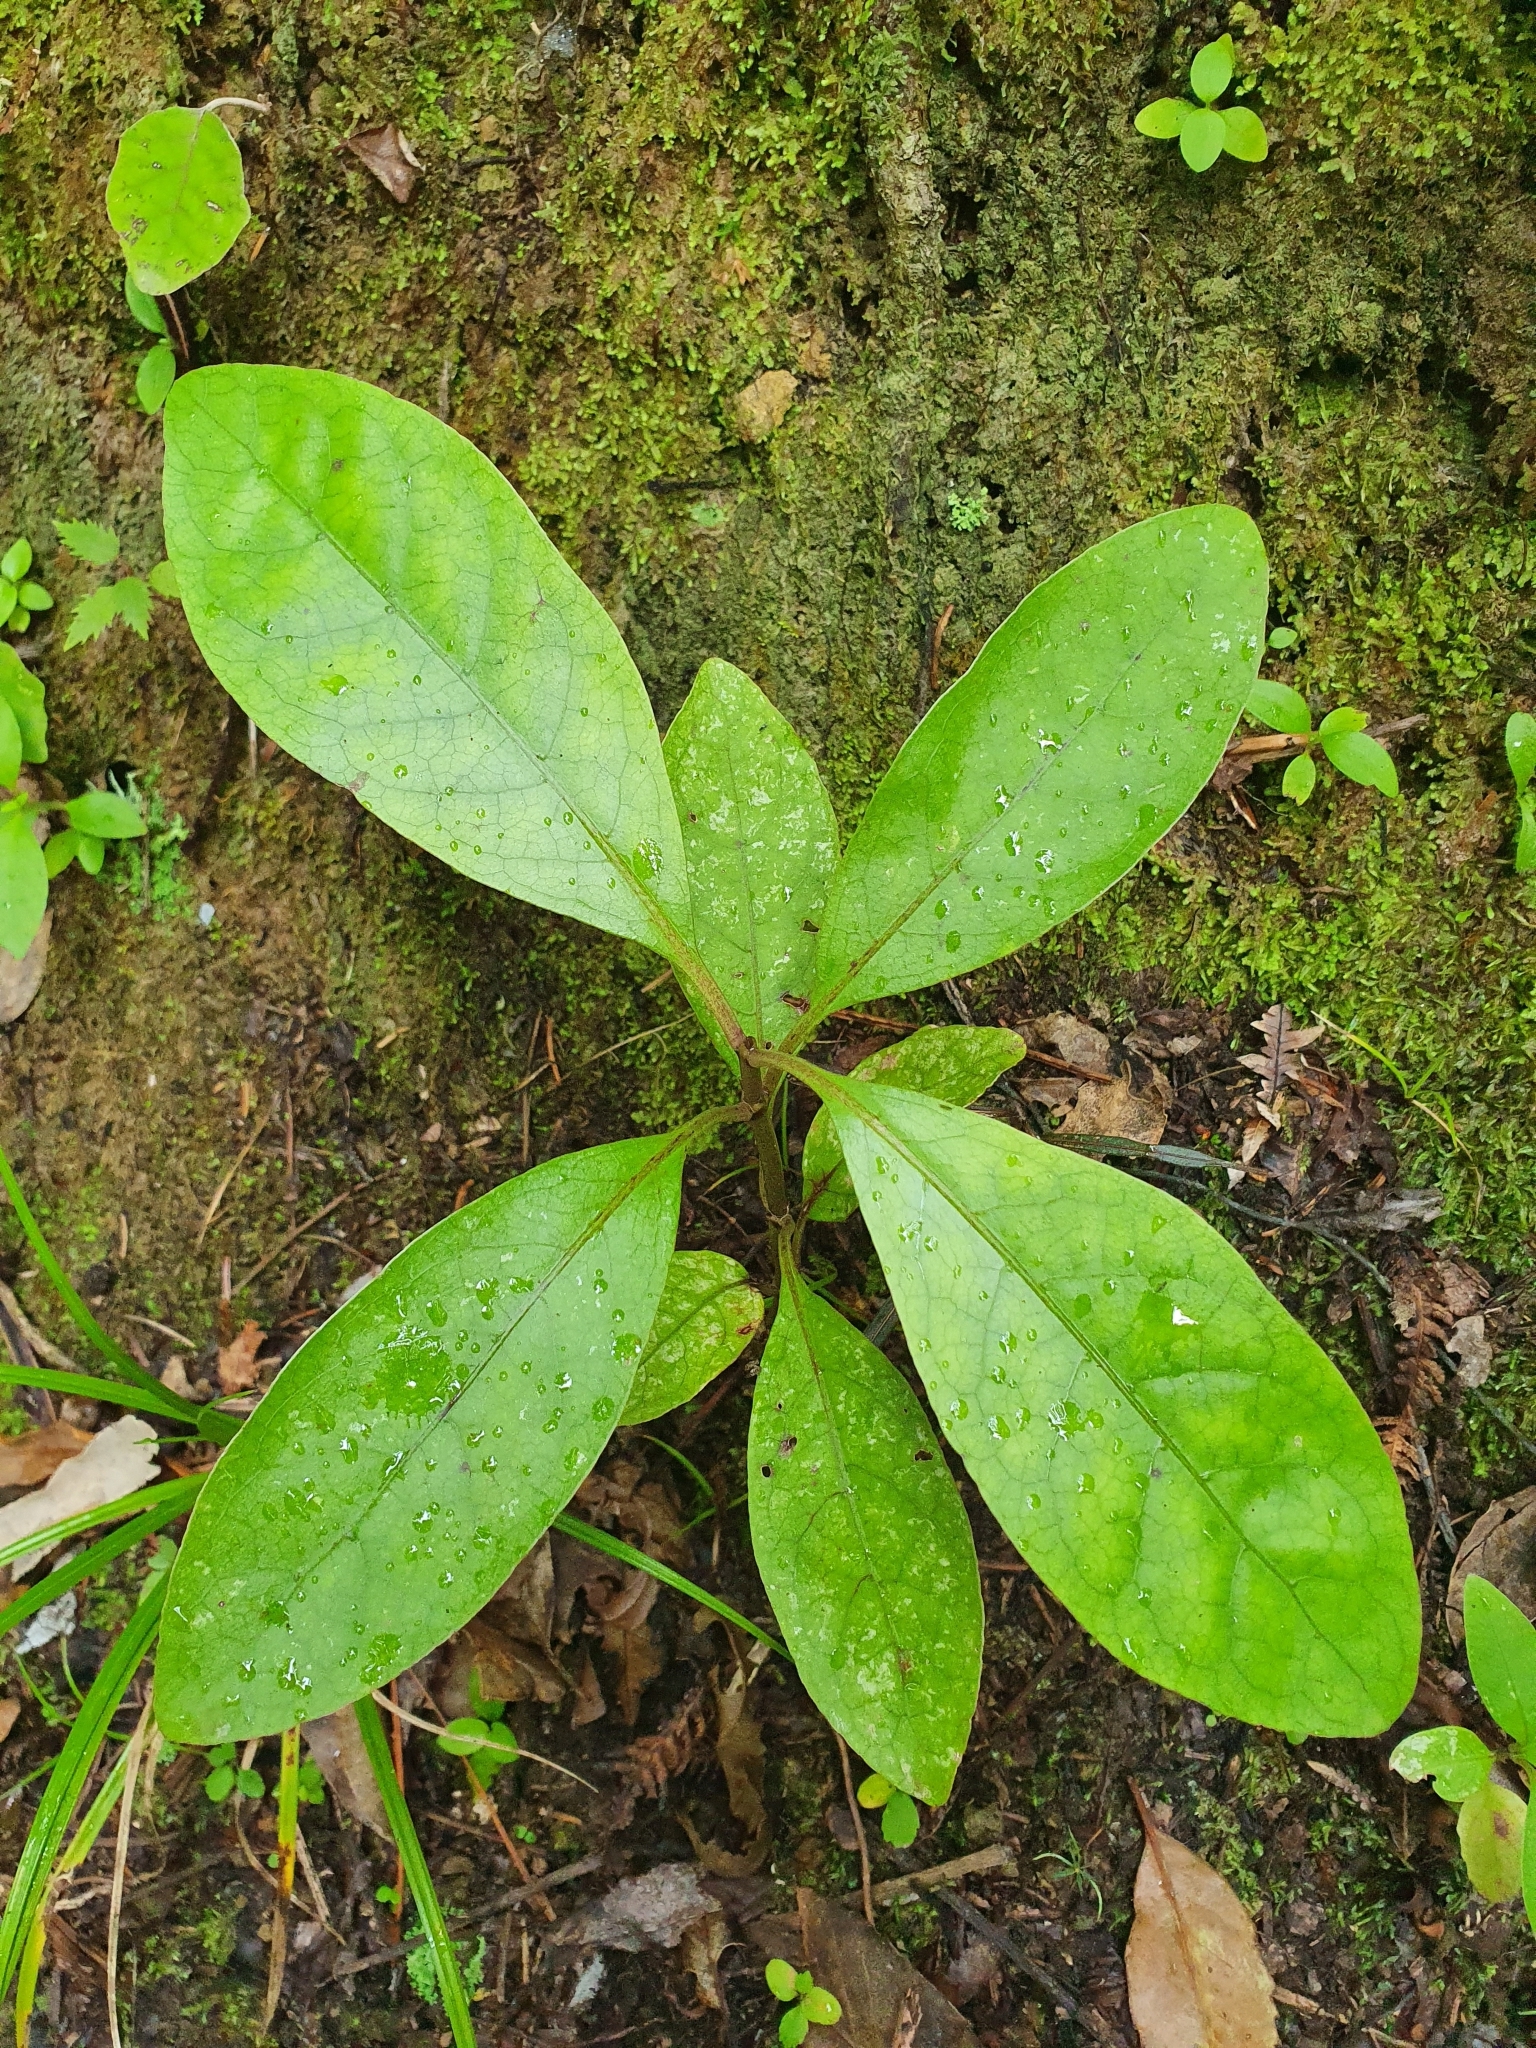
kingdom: Plantae
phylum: Tracheophyta
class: Magnoliopsida
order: Gentianales
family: Rubiaceae
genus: Coprosma
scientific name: Coprosma autumnalis
